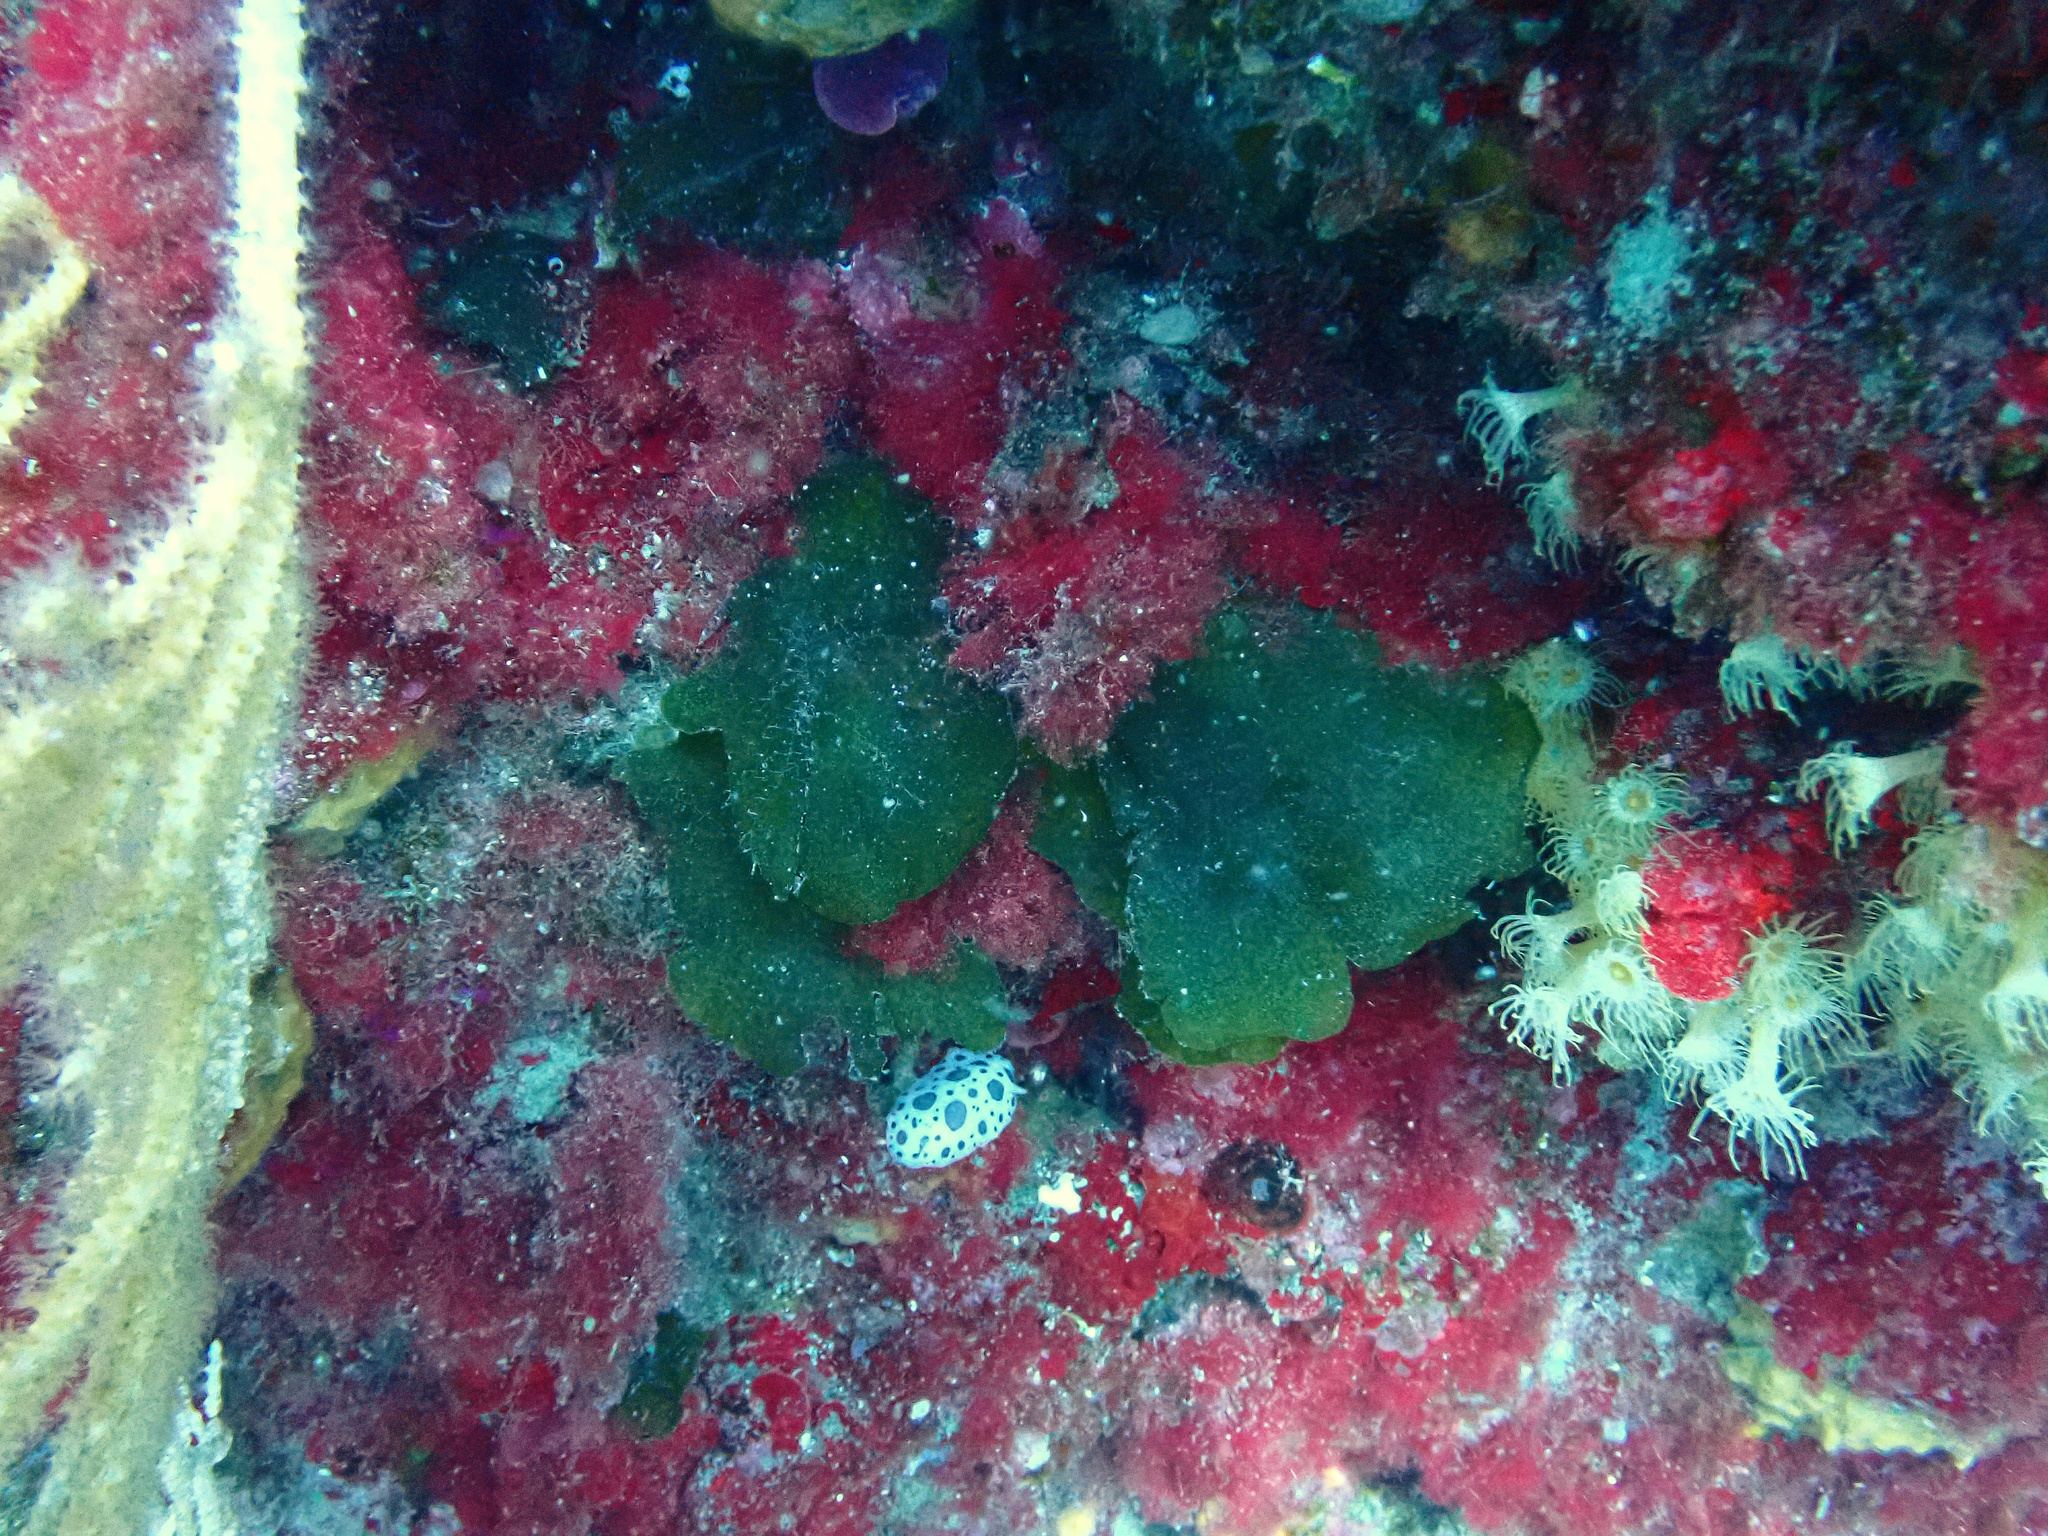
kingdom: Plantae
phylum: Chlorophyta
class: Ulvophyceae
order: Bryopsidales
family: Codiaceae
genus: Codium
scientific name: Codium Flabellia petiolata
